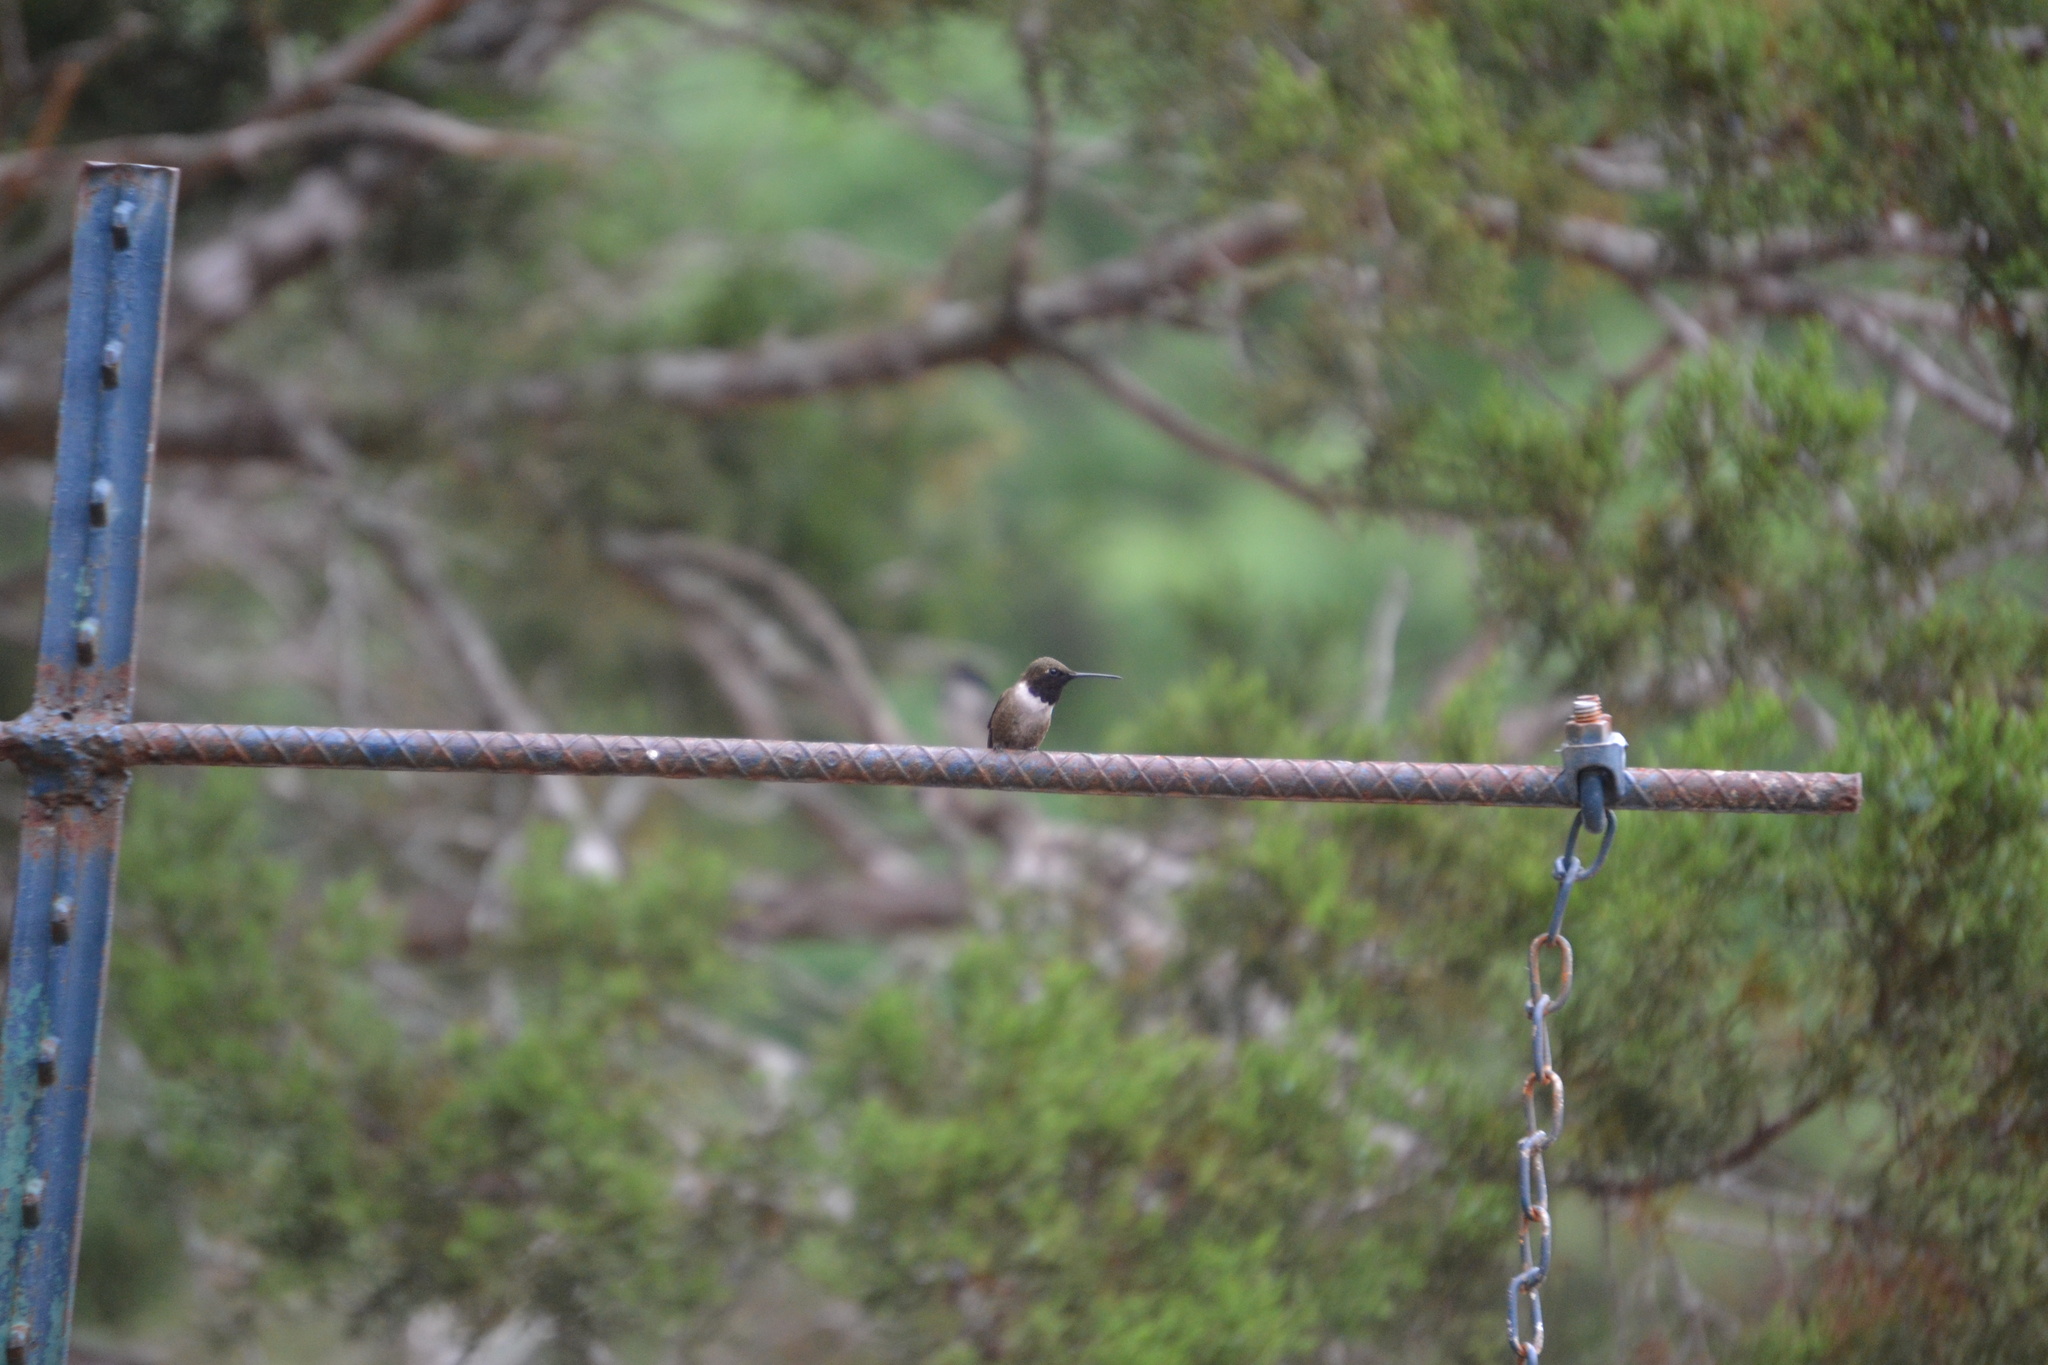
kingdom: Animalia
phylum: Chordata
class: Aves
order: Apodiformes
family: Trochilidae
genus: Archilochus
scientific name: Archilochus alexandri
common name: Black-chinned hummingbird
